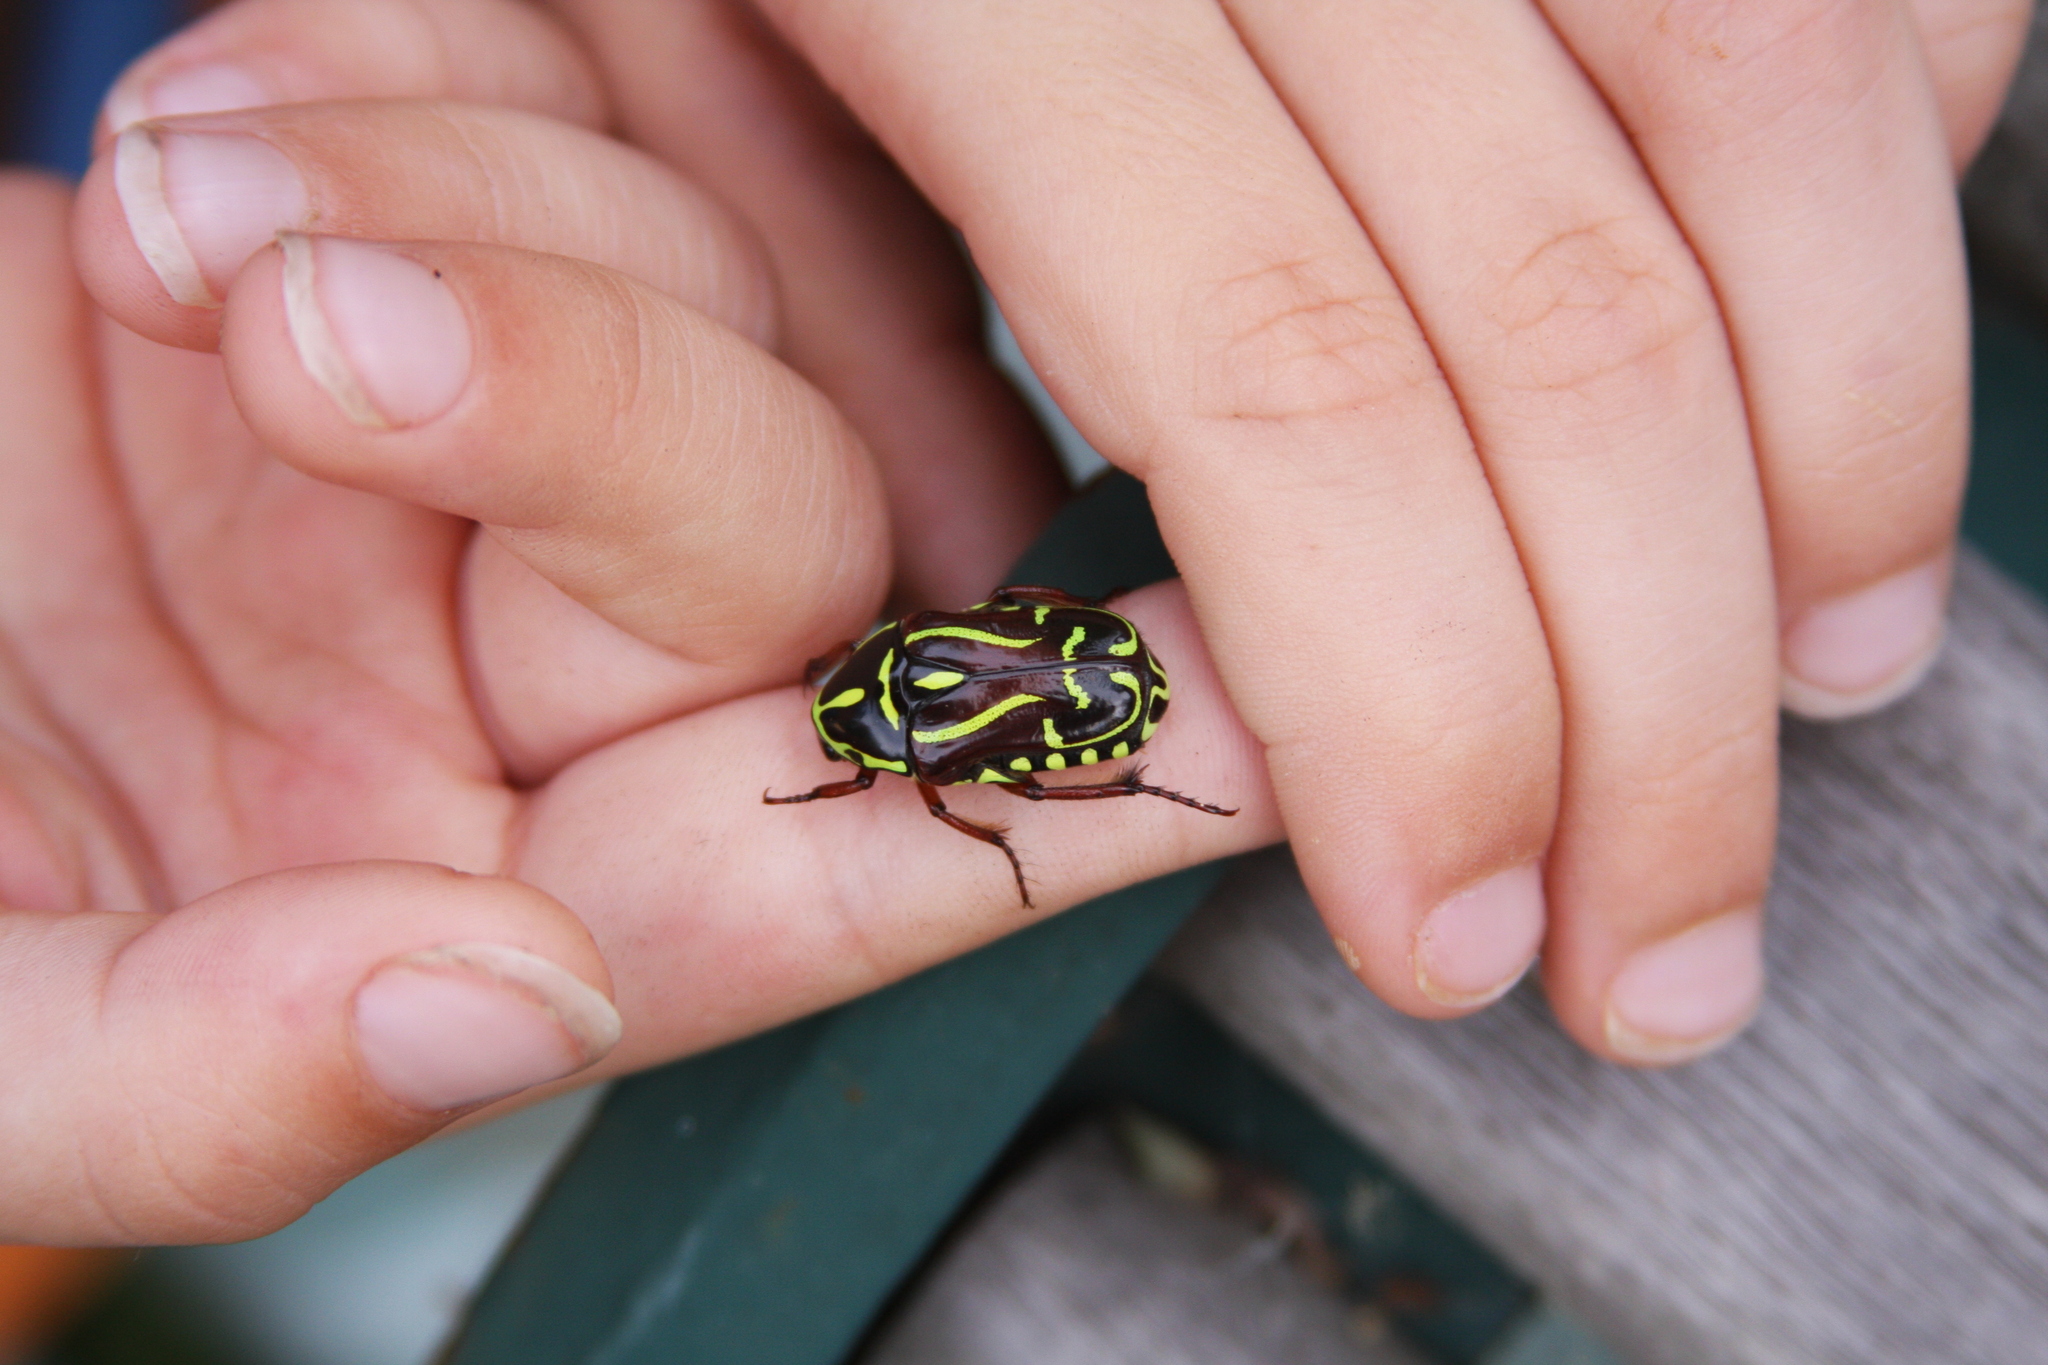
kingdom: Animalia
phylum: Arthropoda
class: Insecta
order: Coleoptera
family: Scarabaeidae
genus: Eupoecila
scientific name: Eupoecila australasiae
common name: Fiddler beetle
